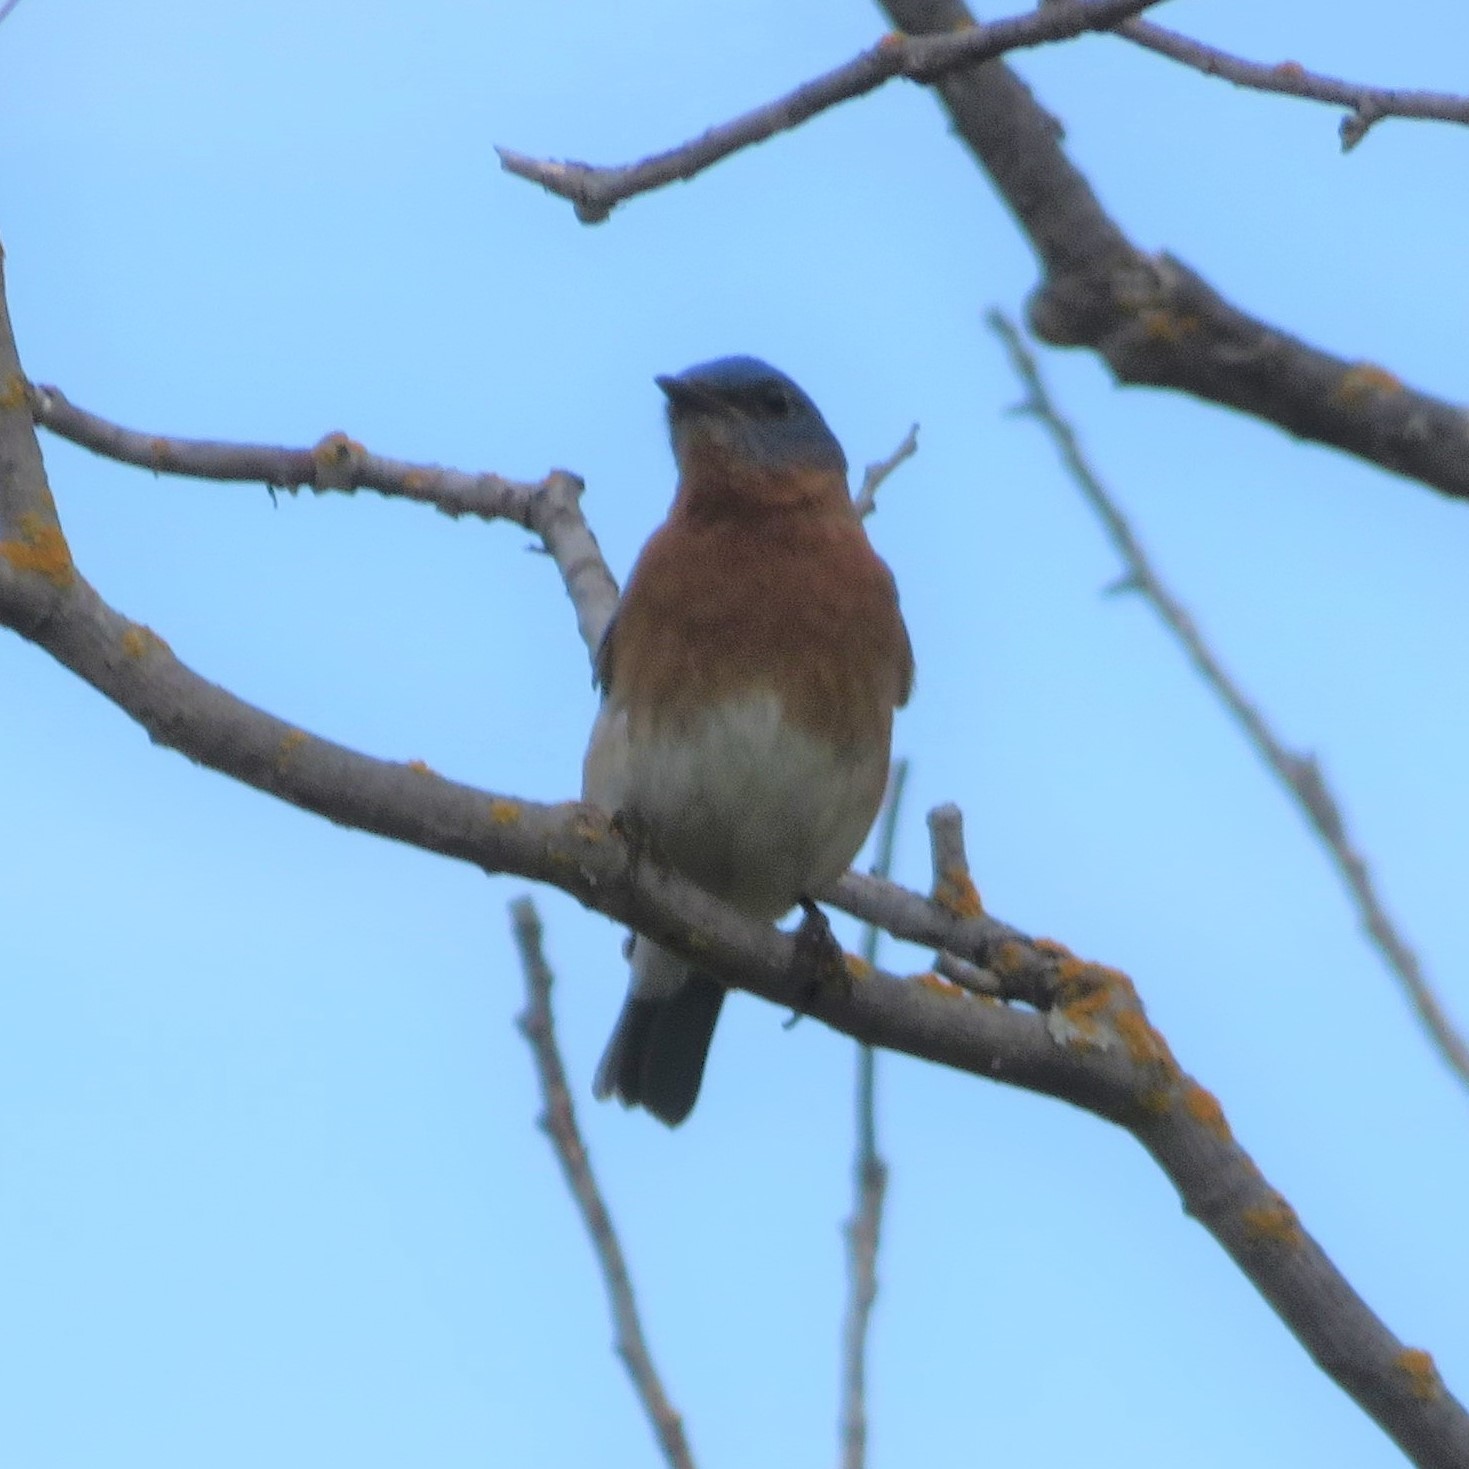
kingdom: Animalia
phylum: Chordata
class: Aves
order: Passeriformes
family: Turdidae
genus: Sialia
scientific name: Sialia sialis
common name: Eastern bluebird
